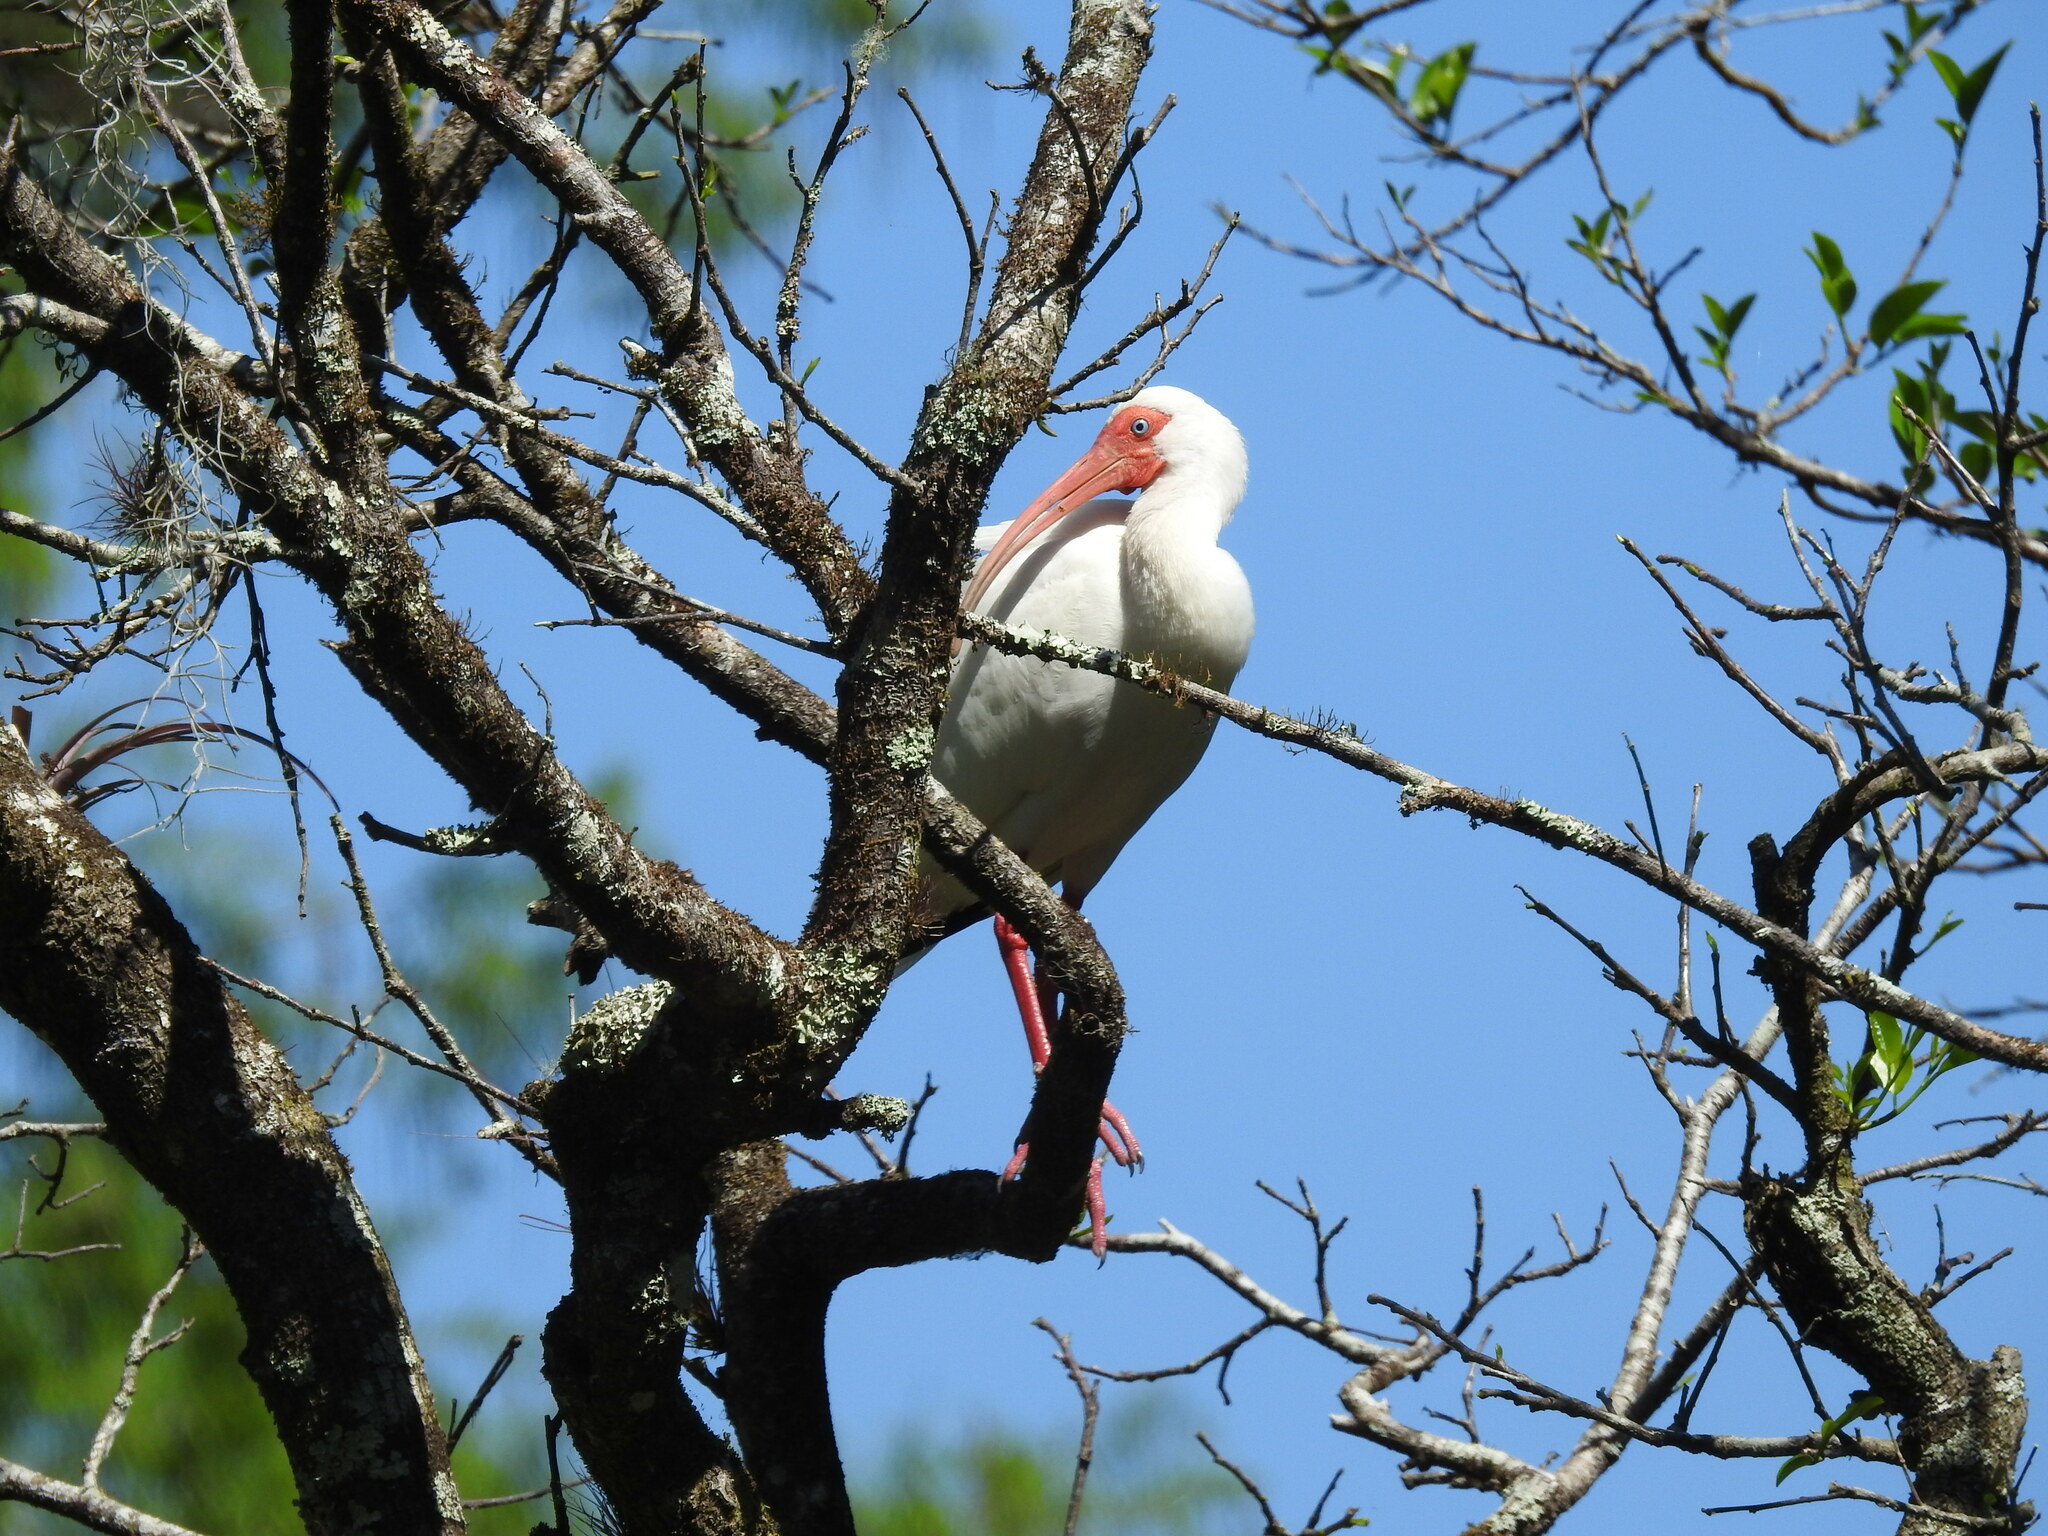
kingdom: Animalia
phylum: Chordata
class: Aves
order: Pelecaniformes
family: Threskiornithidae
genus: Eudocimus
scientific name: Eudocimus albus
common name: White ibis
